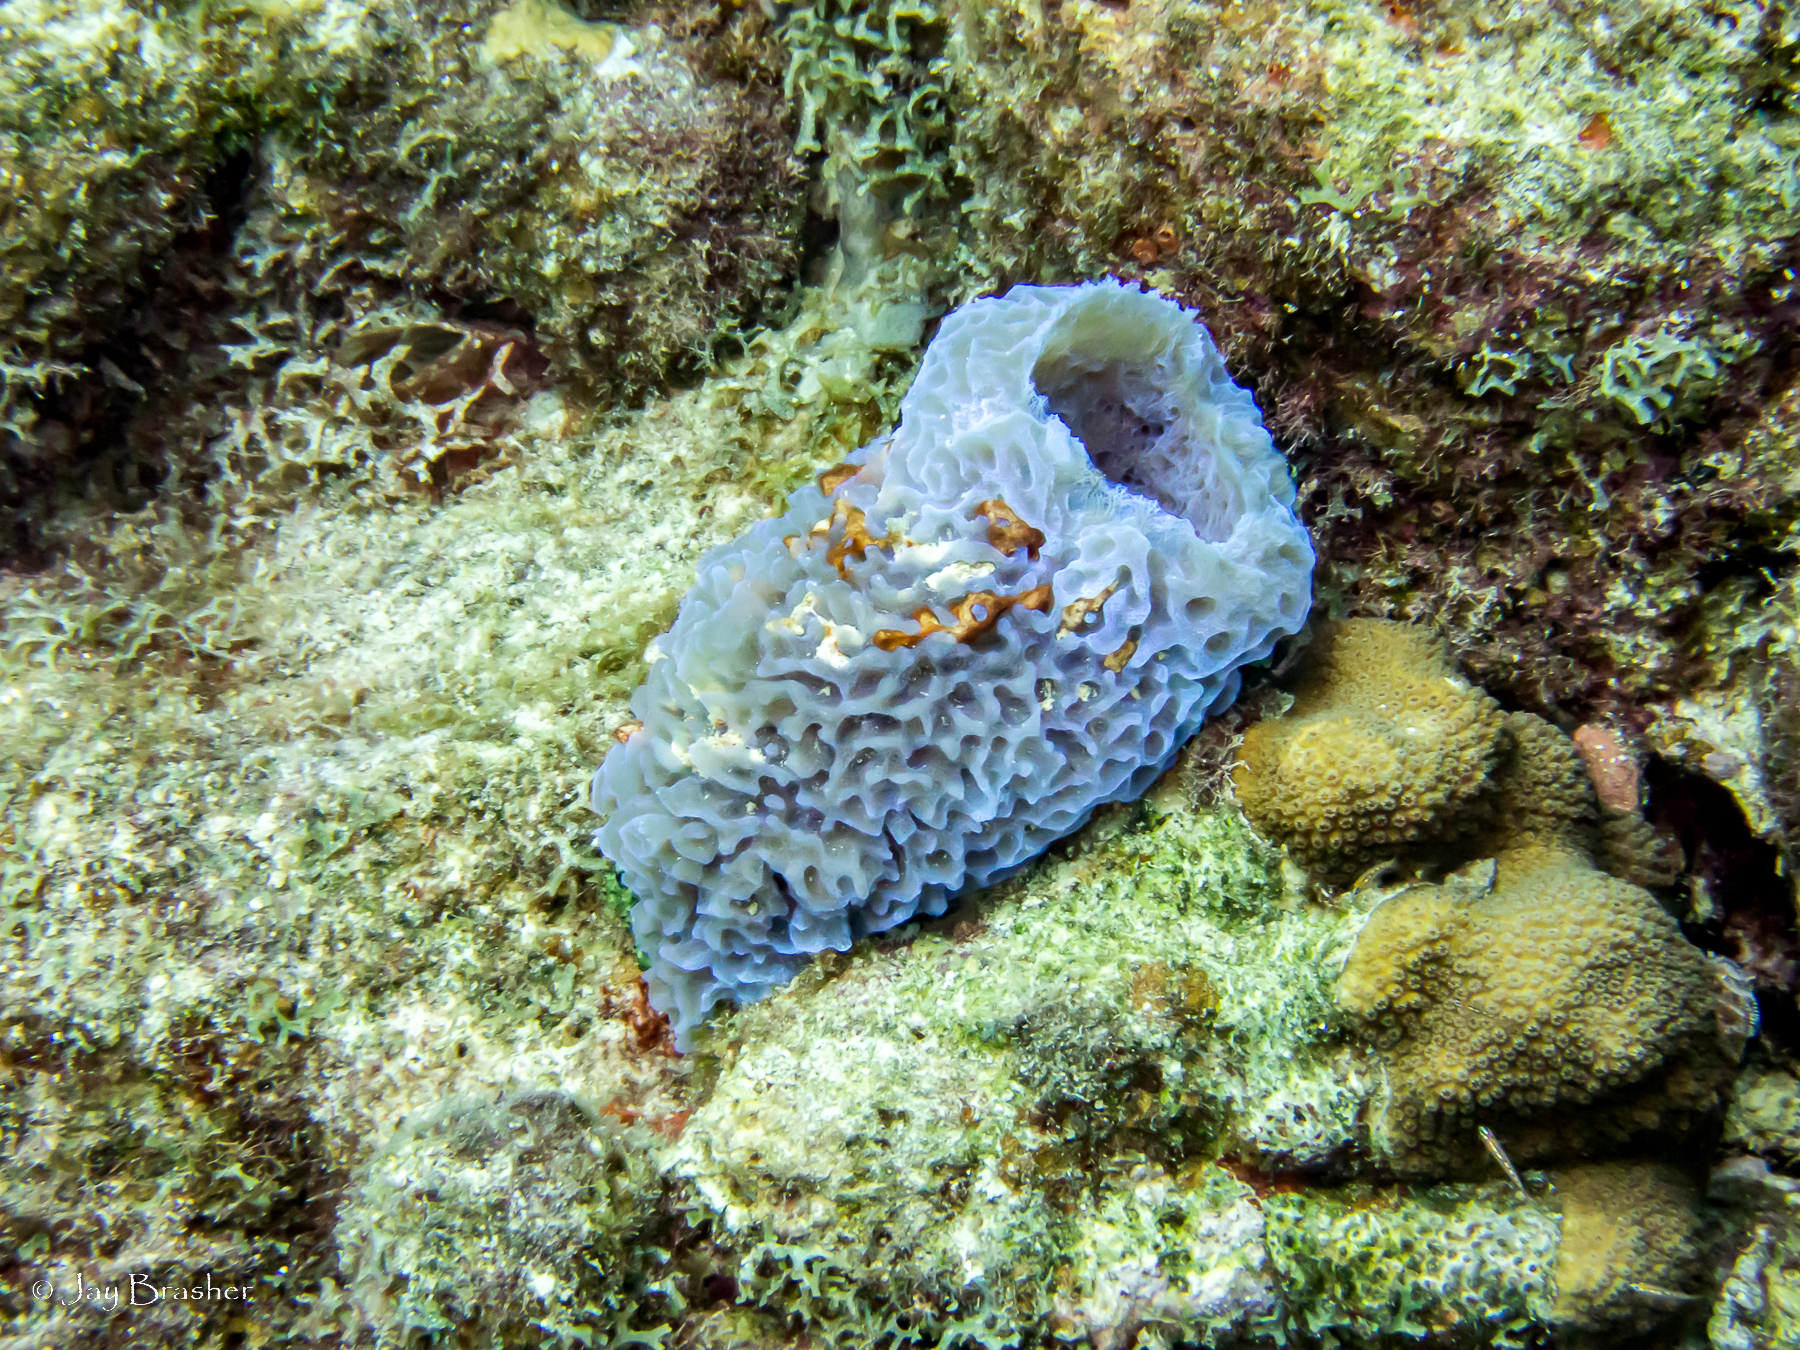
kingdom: Animalia
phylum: Porifera
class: Demospongiae
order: Haplosclerida
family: Callyspongiidae
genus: Callyspongia
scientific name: Callyspongia plicifera
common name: Azure vase sponge
